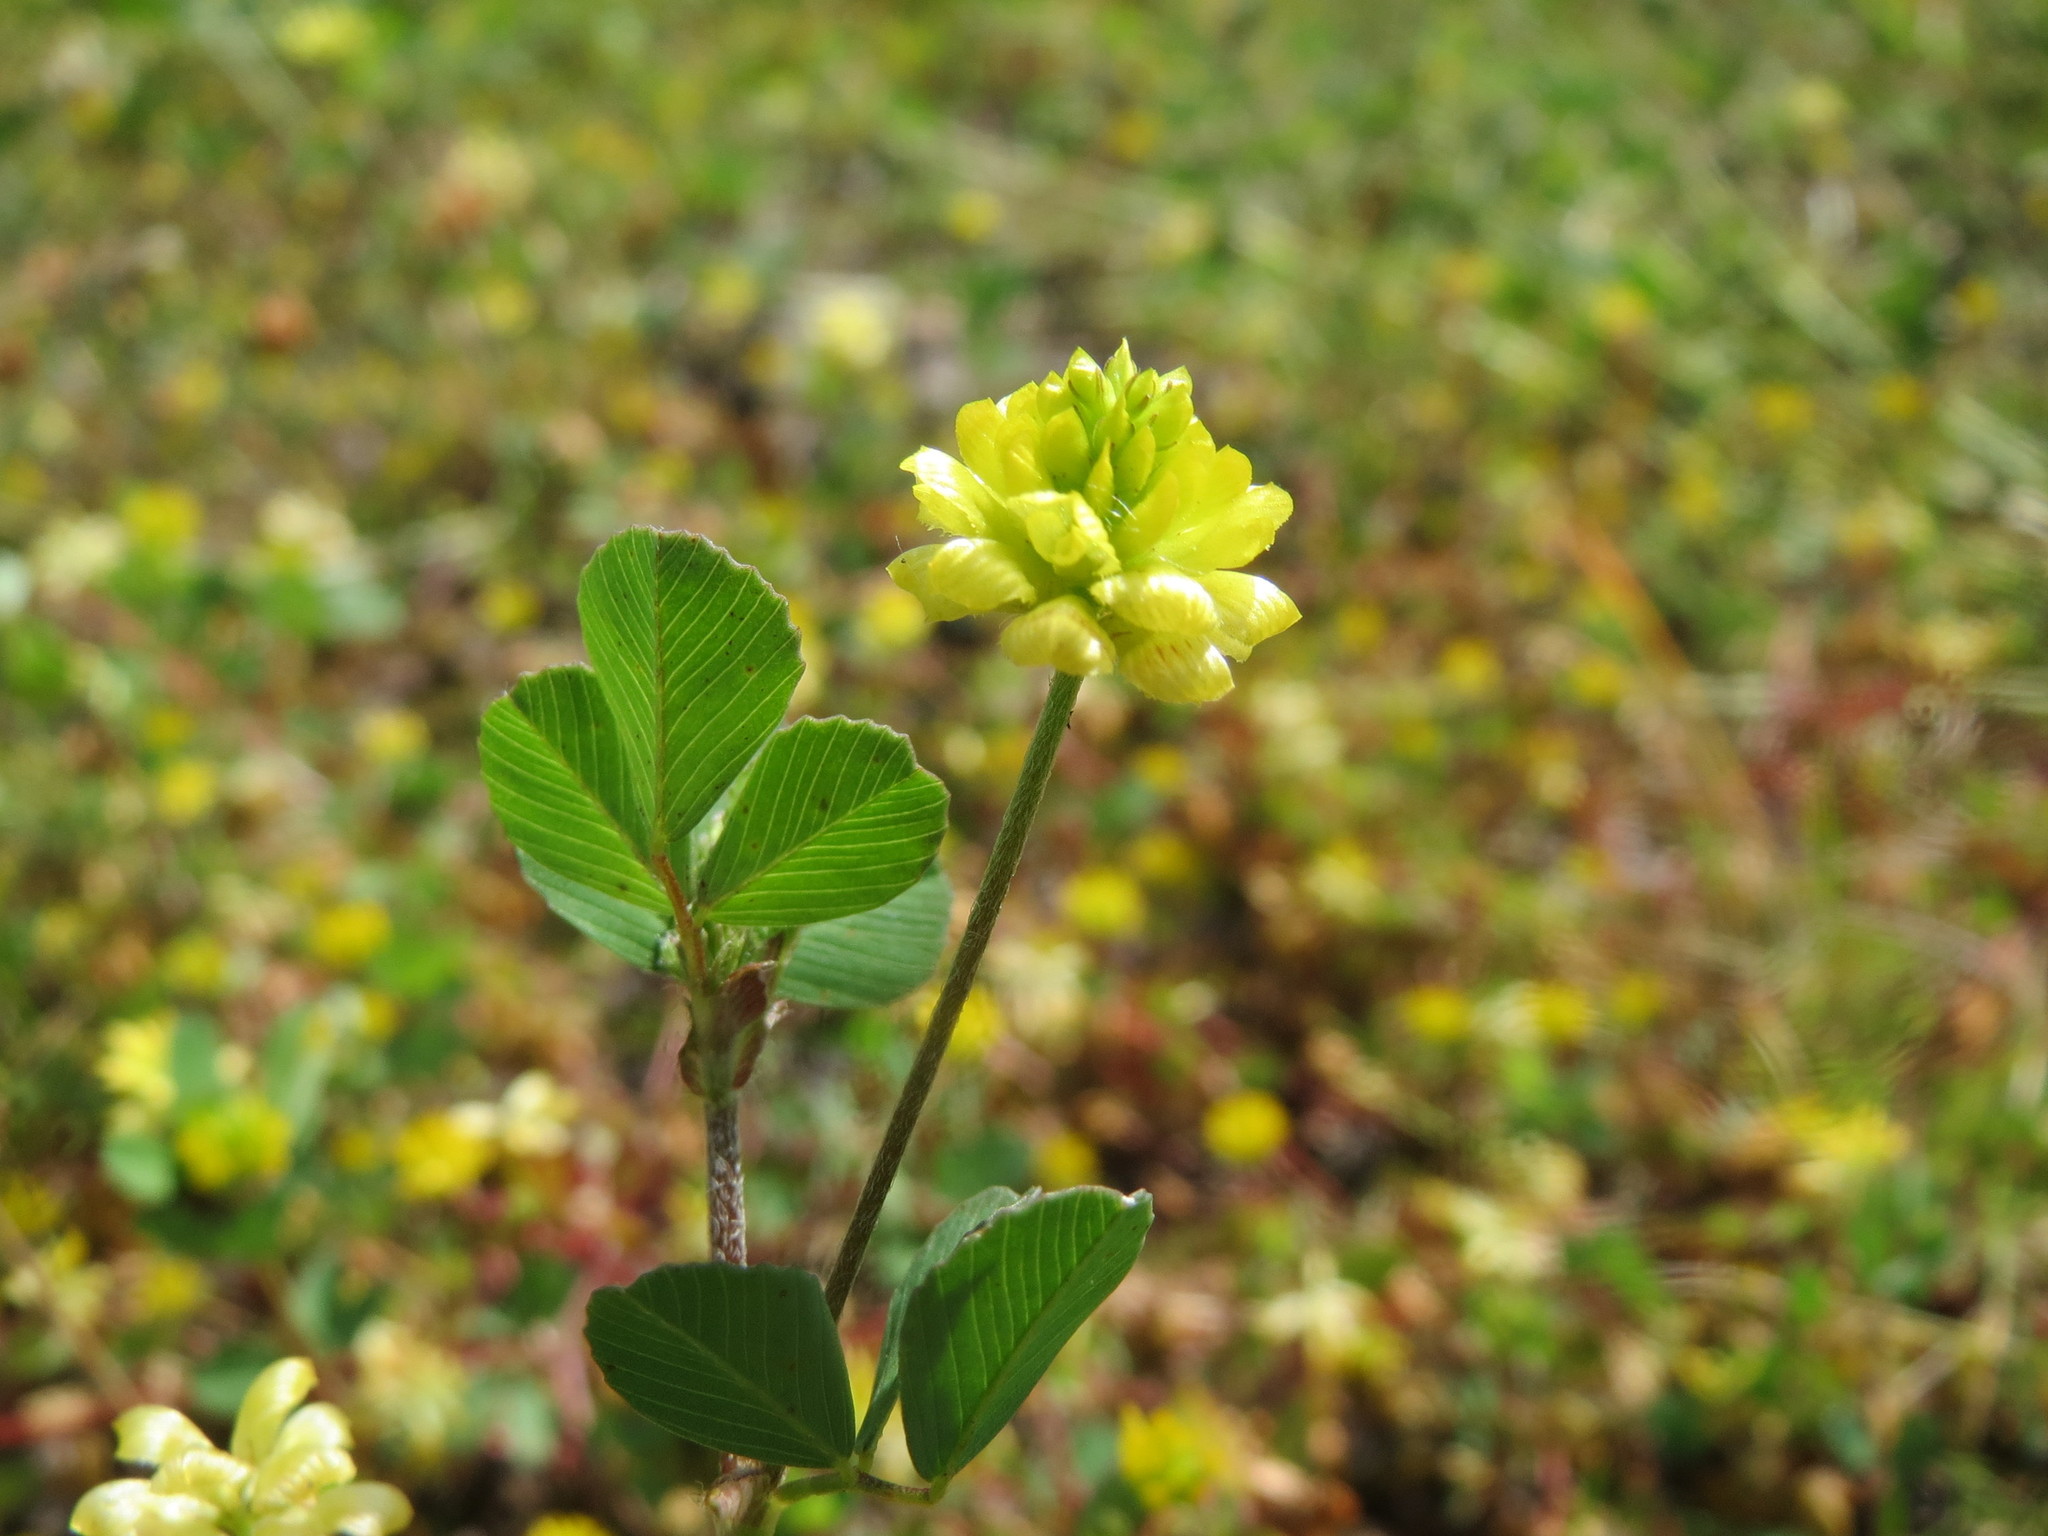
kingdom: Plantae
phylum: Tracheophyta
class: Magnoliopsida
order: Fabales
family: Fabaceae
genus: Trifolium
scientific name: Trifolium campestre
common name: Field clover
